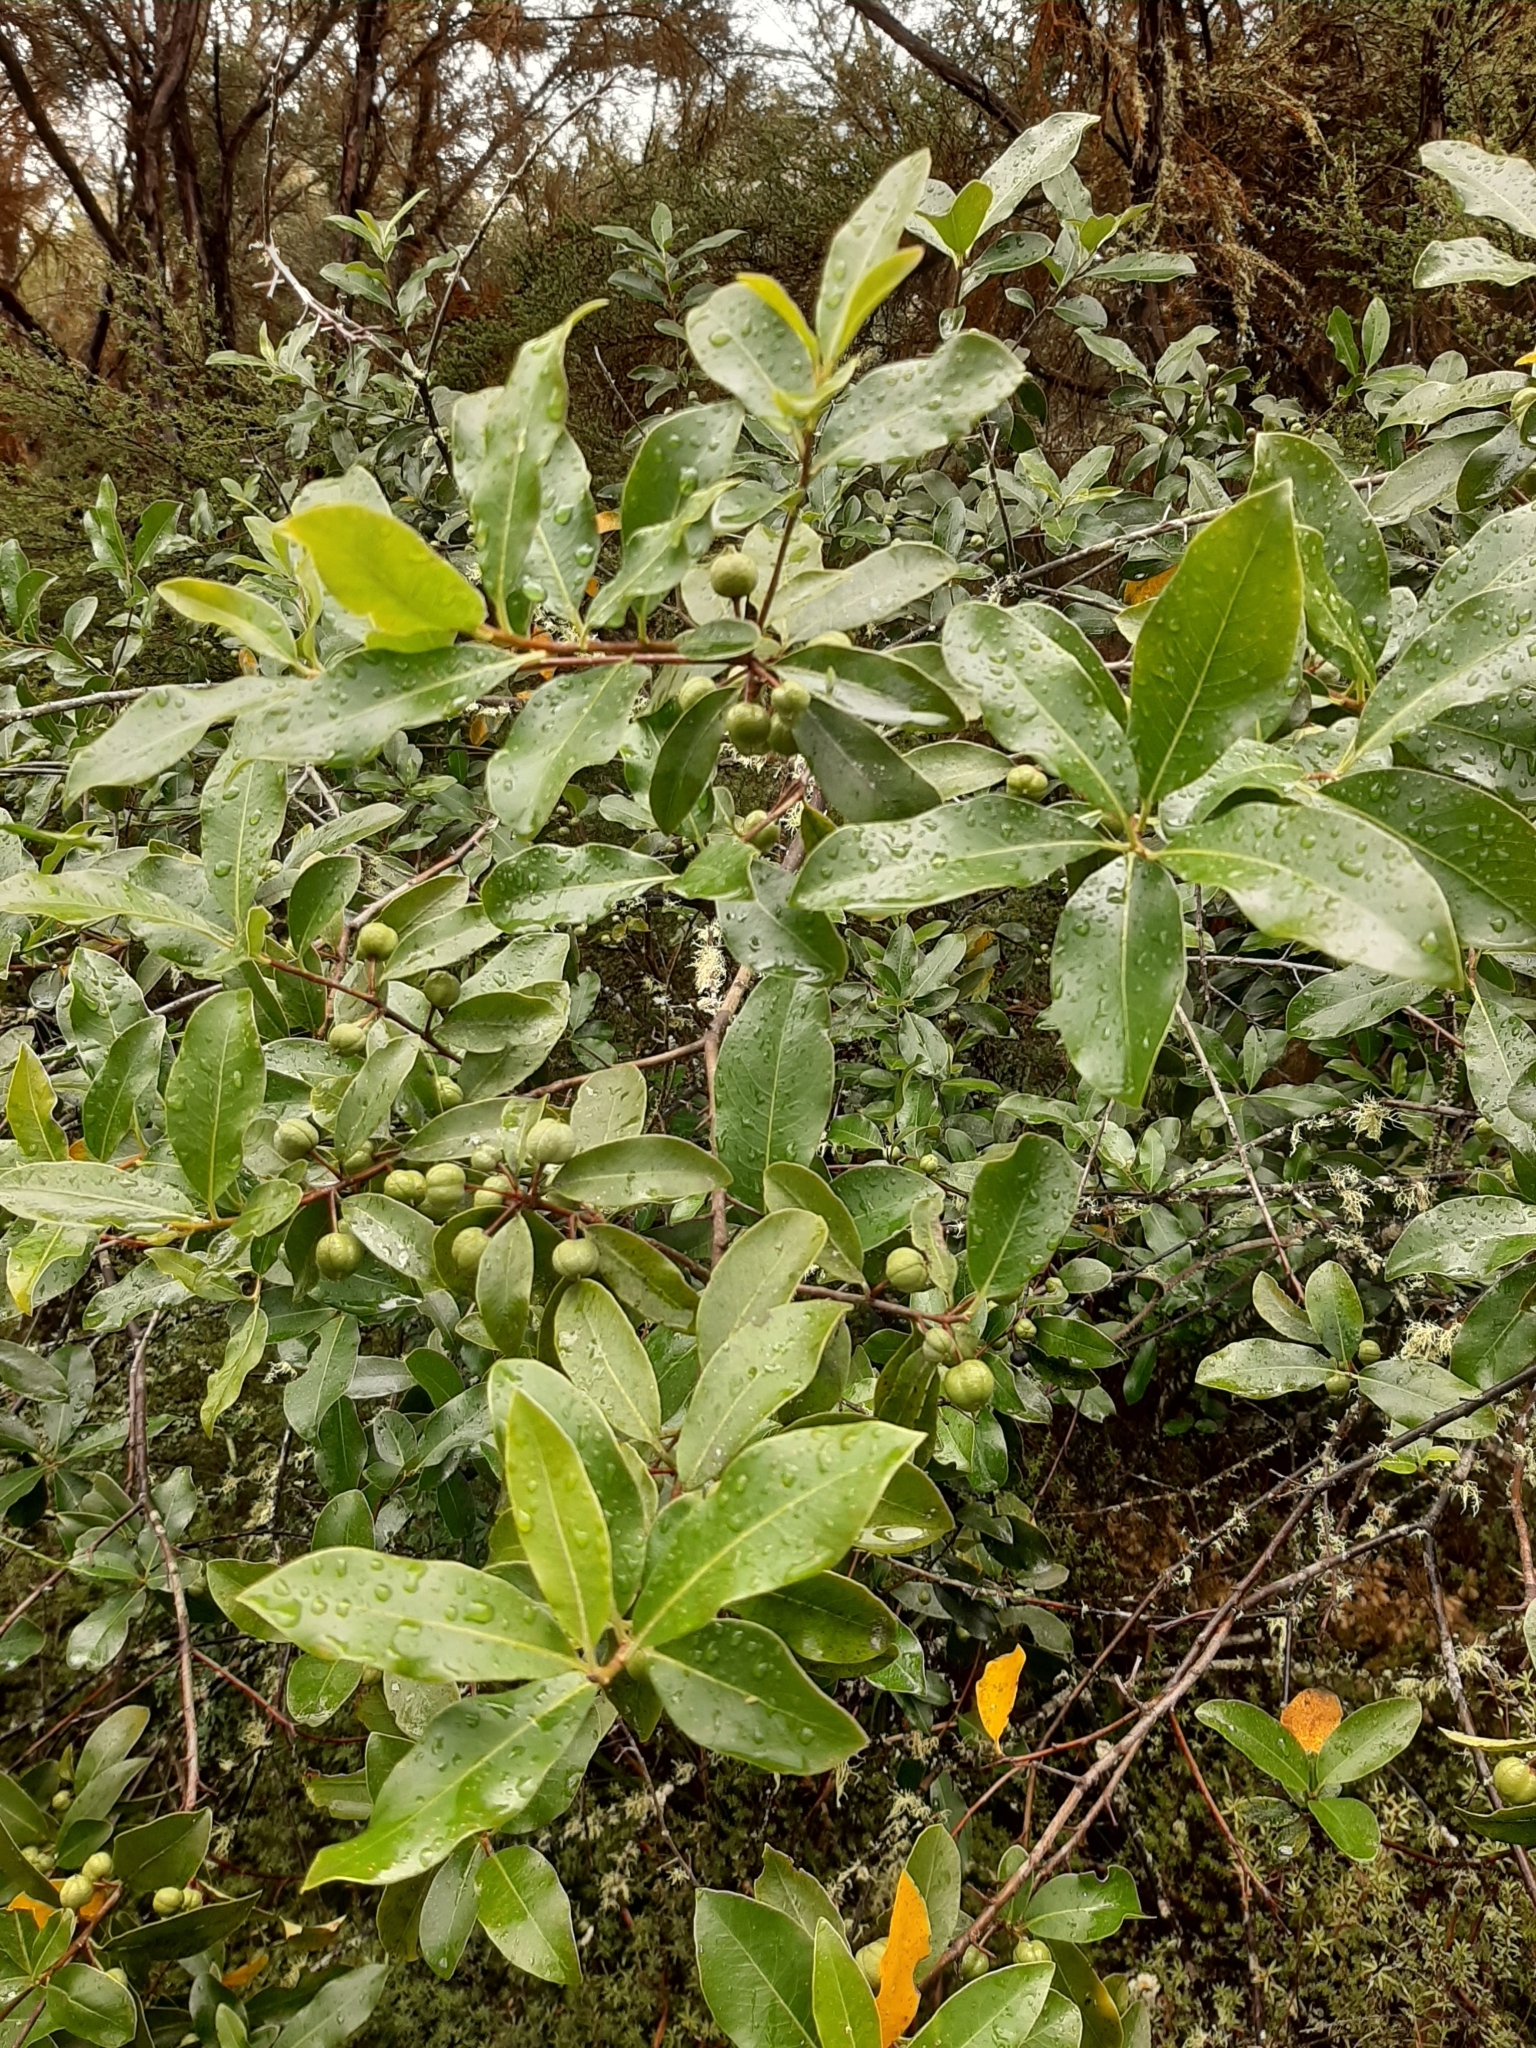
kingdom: Plantae
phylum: Tracheophyta
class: Magnoliopsida
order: Apiales
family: Pittosporaceae
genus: Pittosporum
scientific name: Pittosporum colensoi
